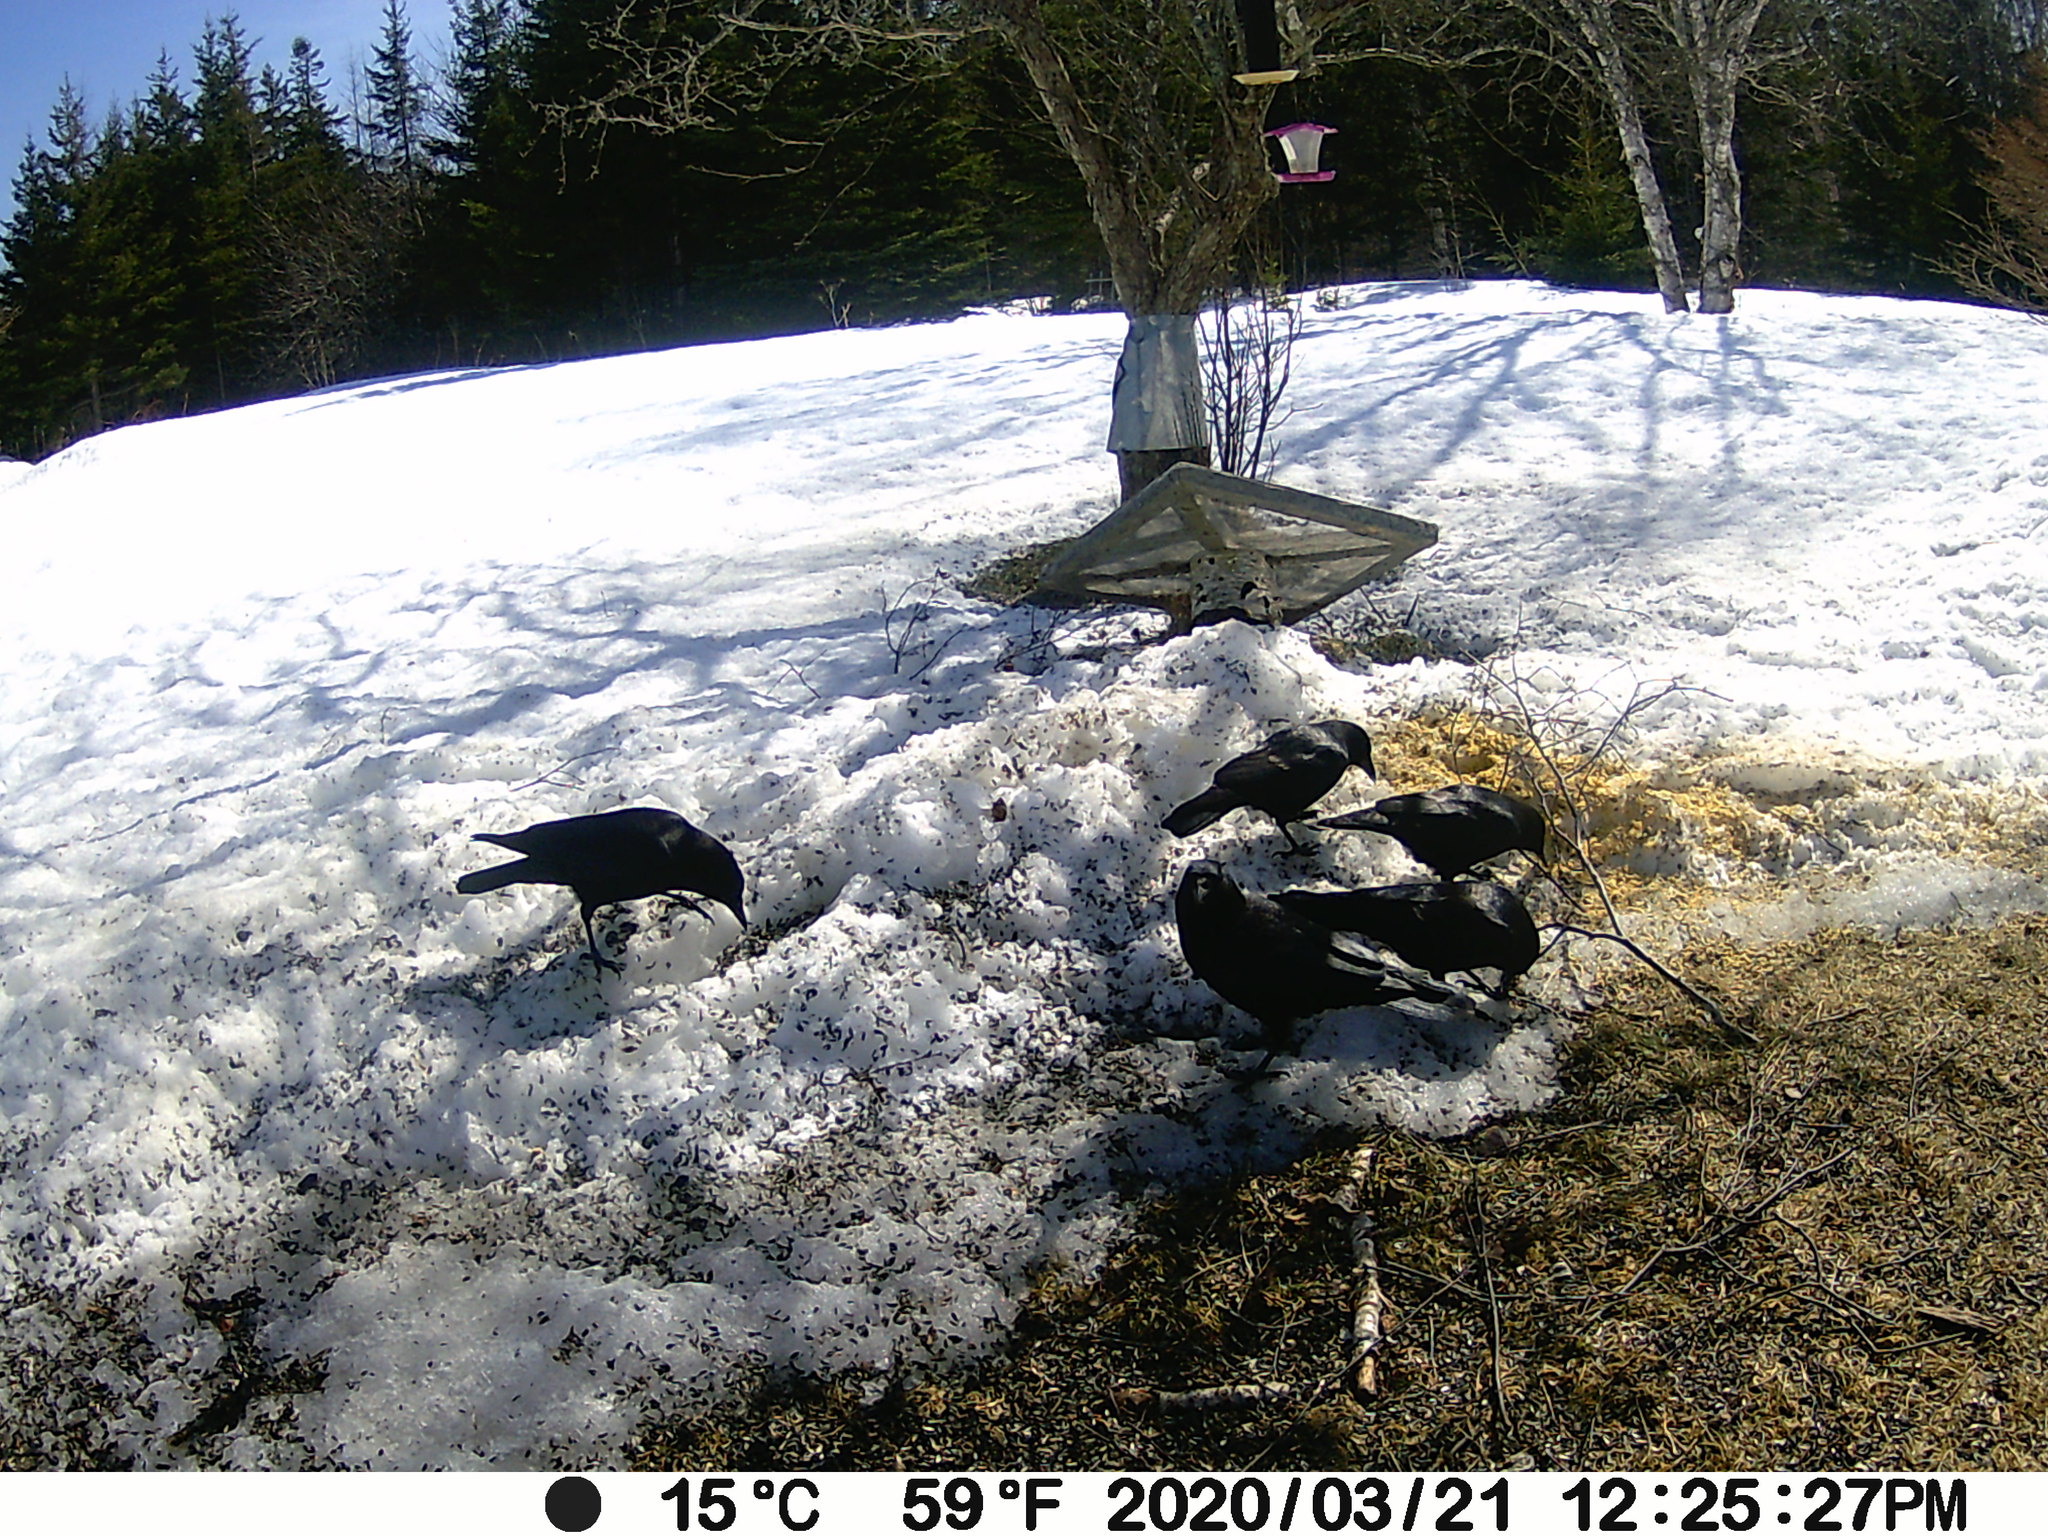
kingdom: Animalia
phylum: Chordata
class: Aves
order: Passeriformes
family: Corvidae
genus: Corvus
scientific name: Corvus brachyrhynchos
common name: American crow
